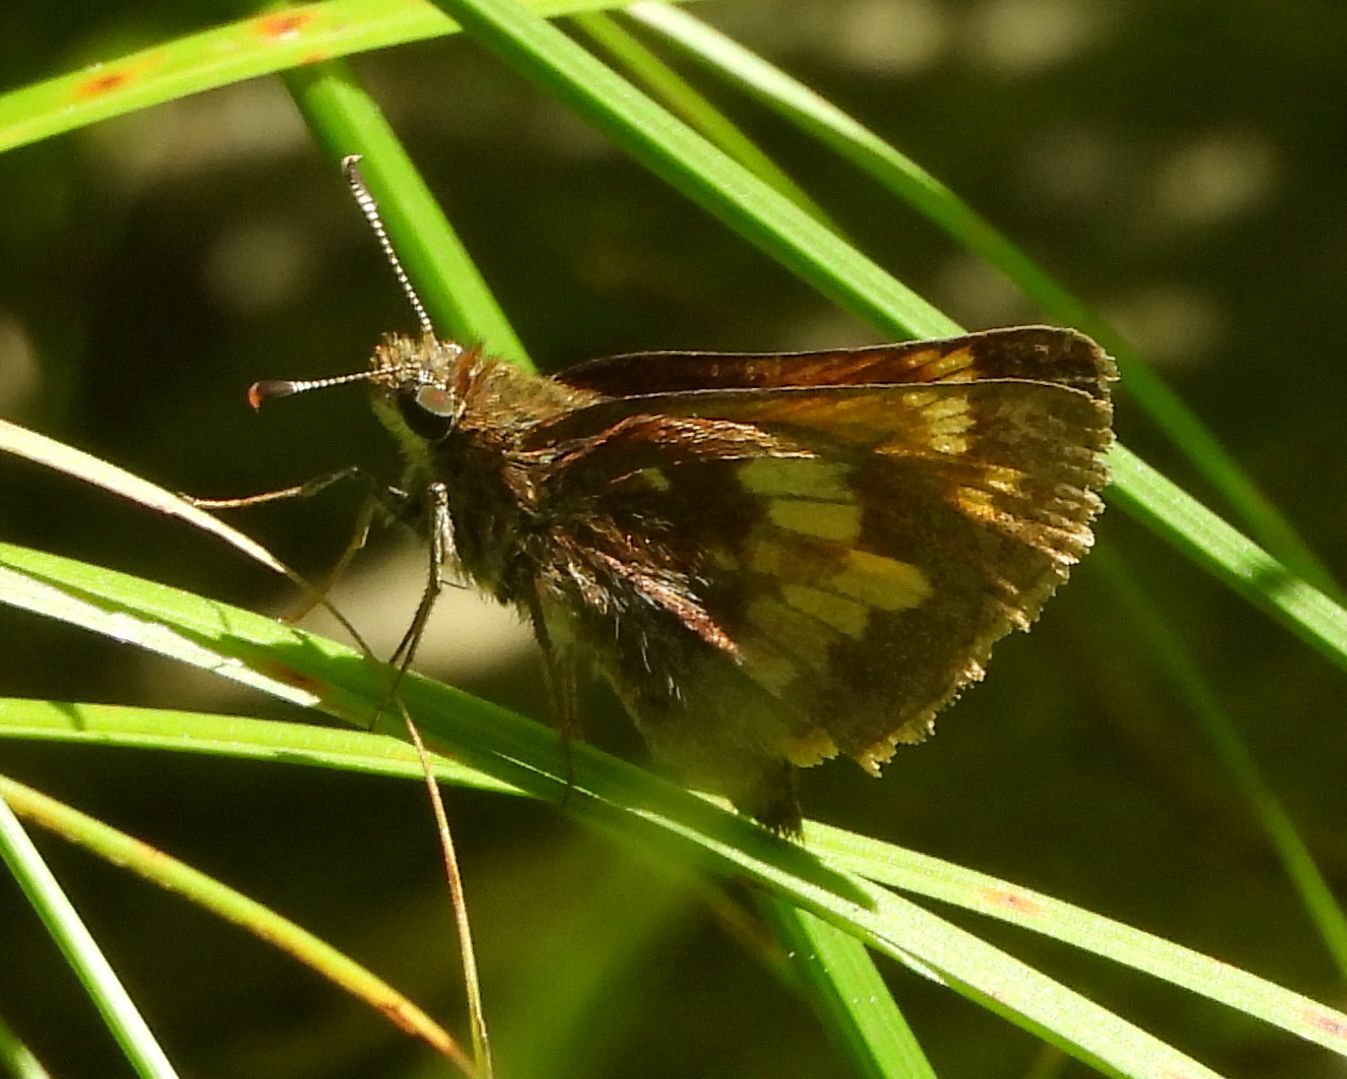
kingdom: Animalia
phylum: Arthropoda
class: Insecta
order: Lepidoptera
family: Hesperiidae
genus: Lon
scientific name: Lon hobomok
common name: Hobomok skipper
